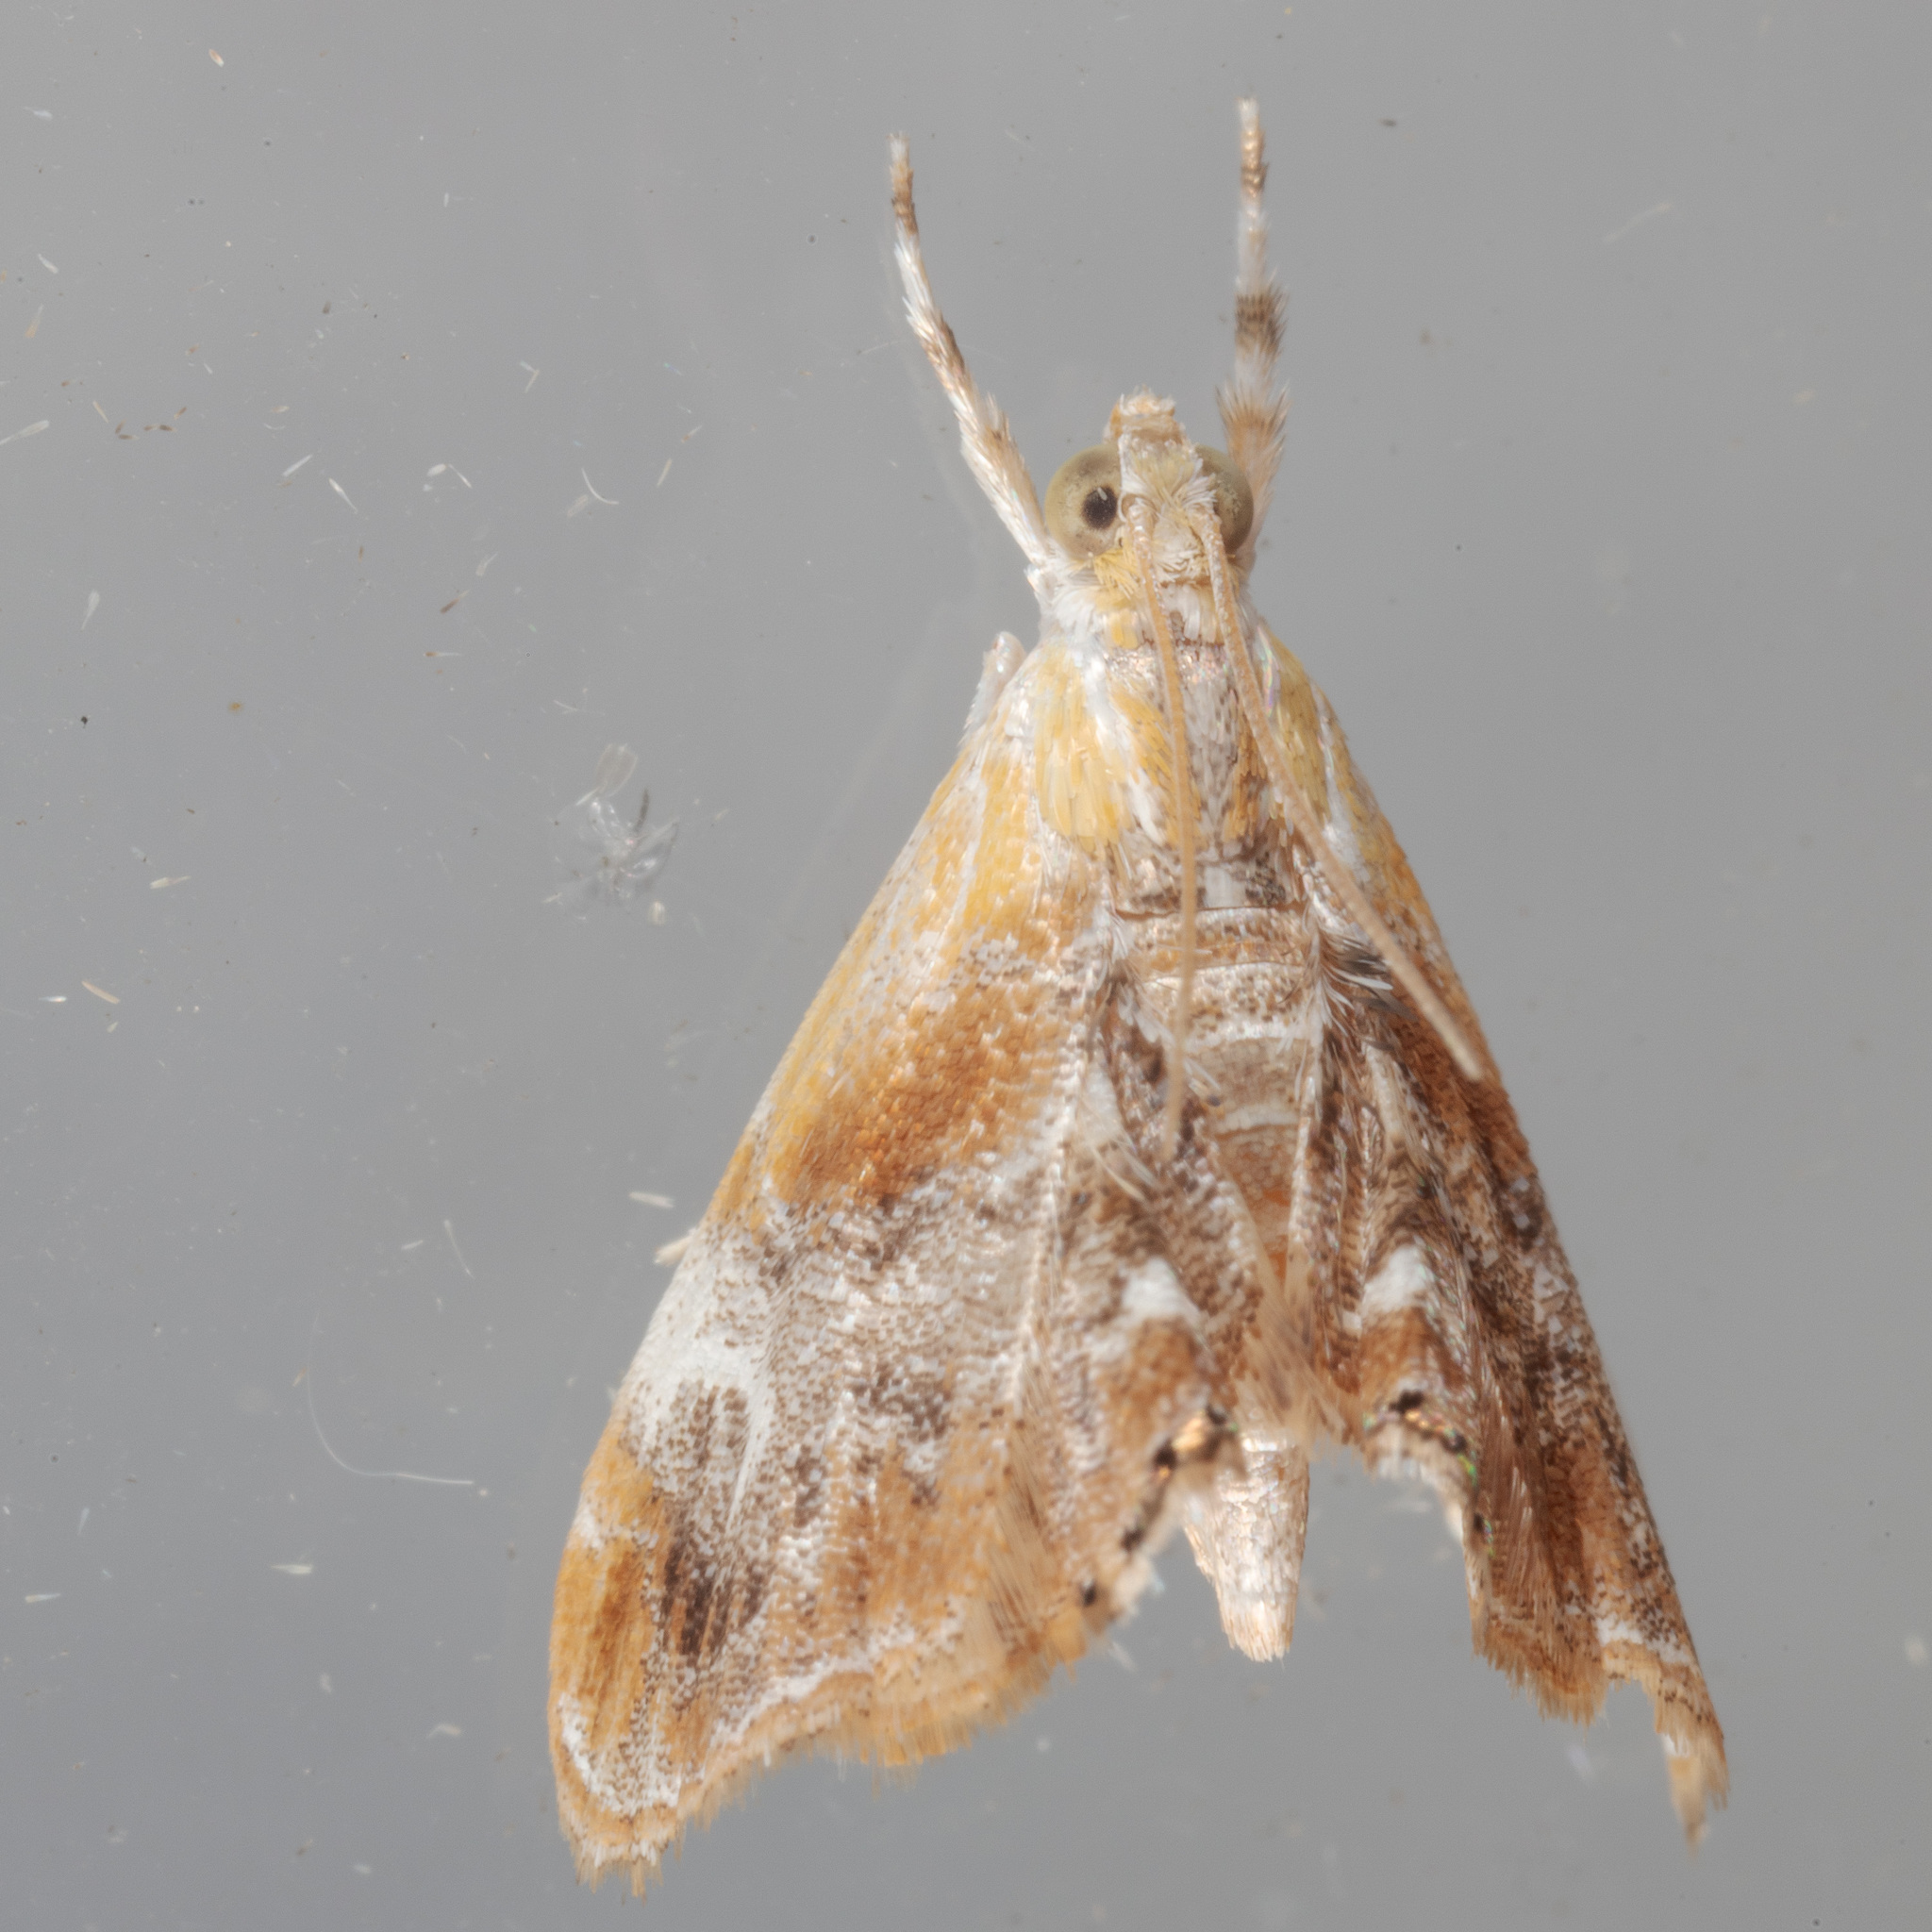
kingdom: Animalia
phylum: Arthropoda
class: Insecta
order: Lepidoptera
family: Crambidae
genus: Dicymolomia
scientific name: Dicymolomia julianalis
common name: Julia's dicymolomia moth
